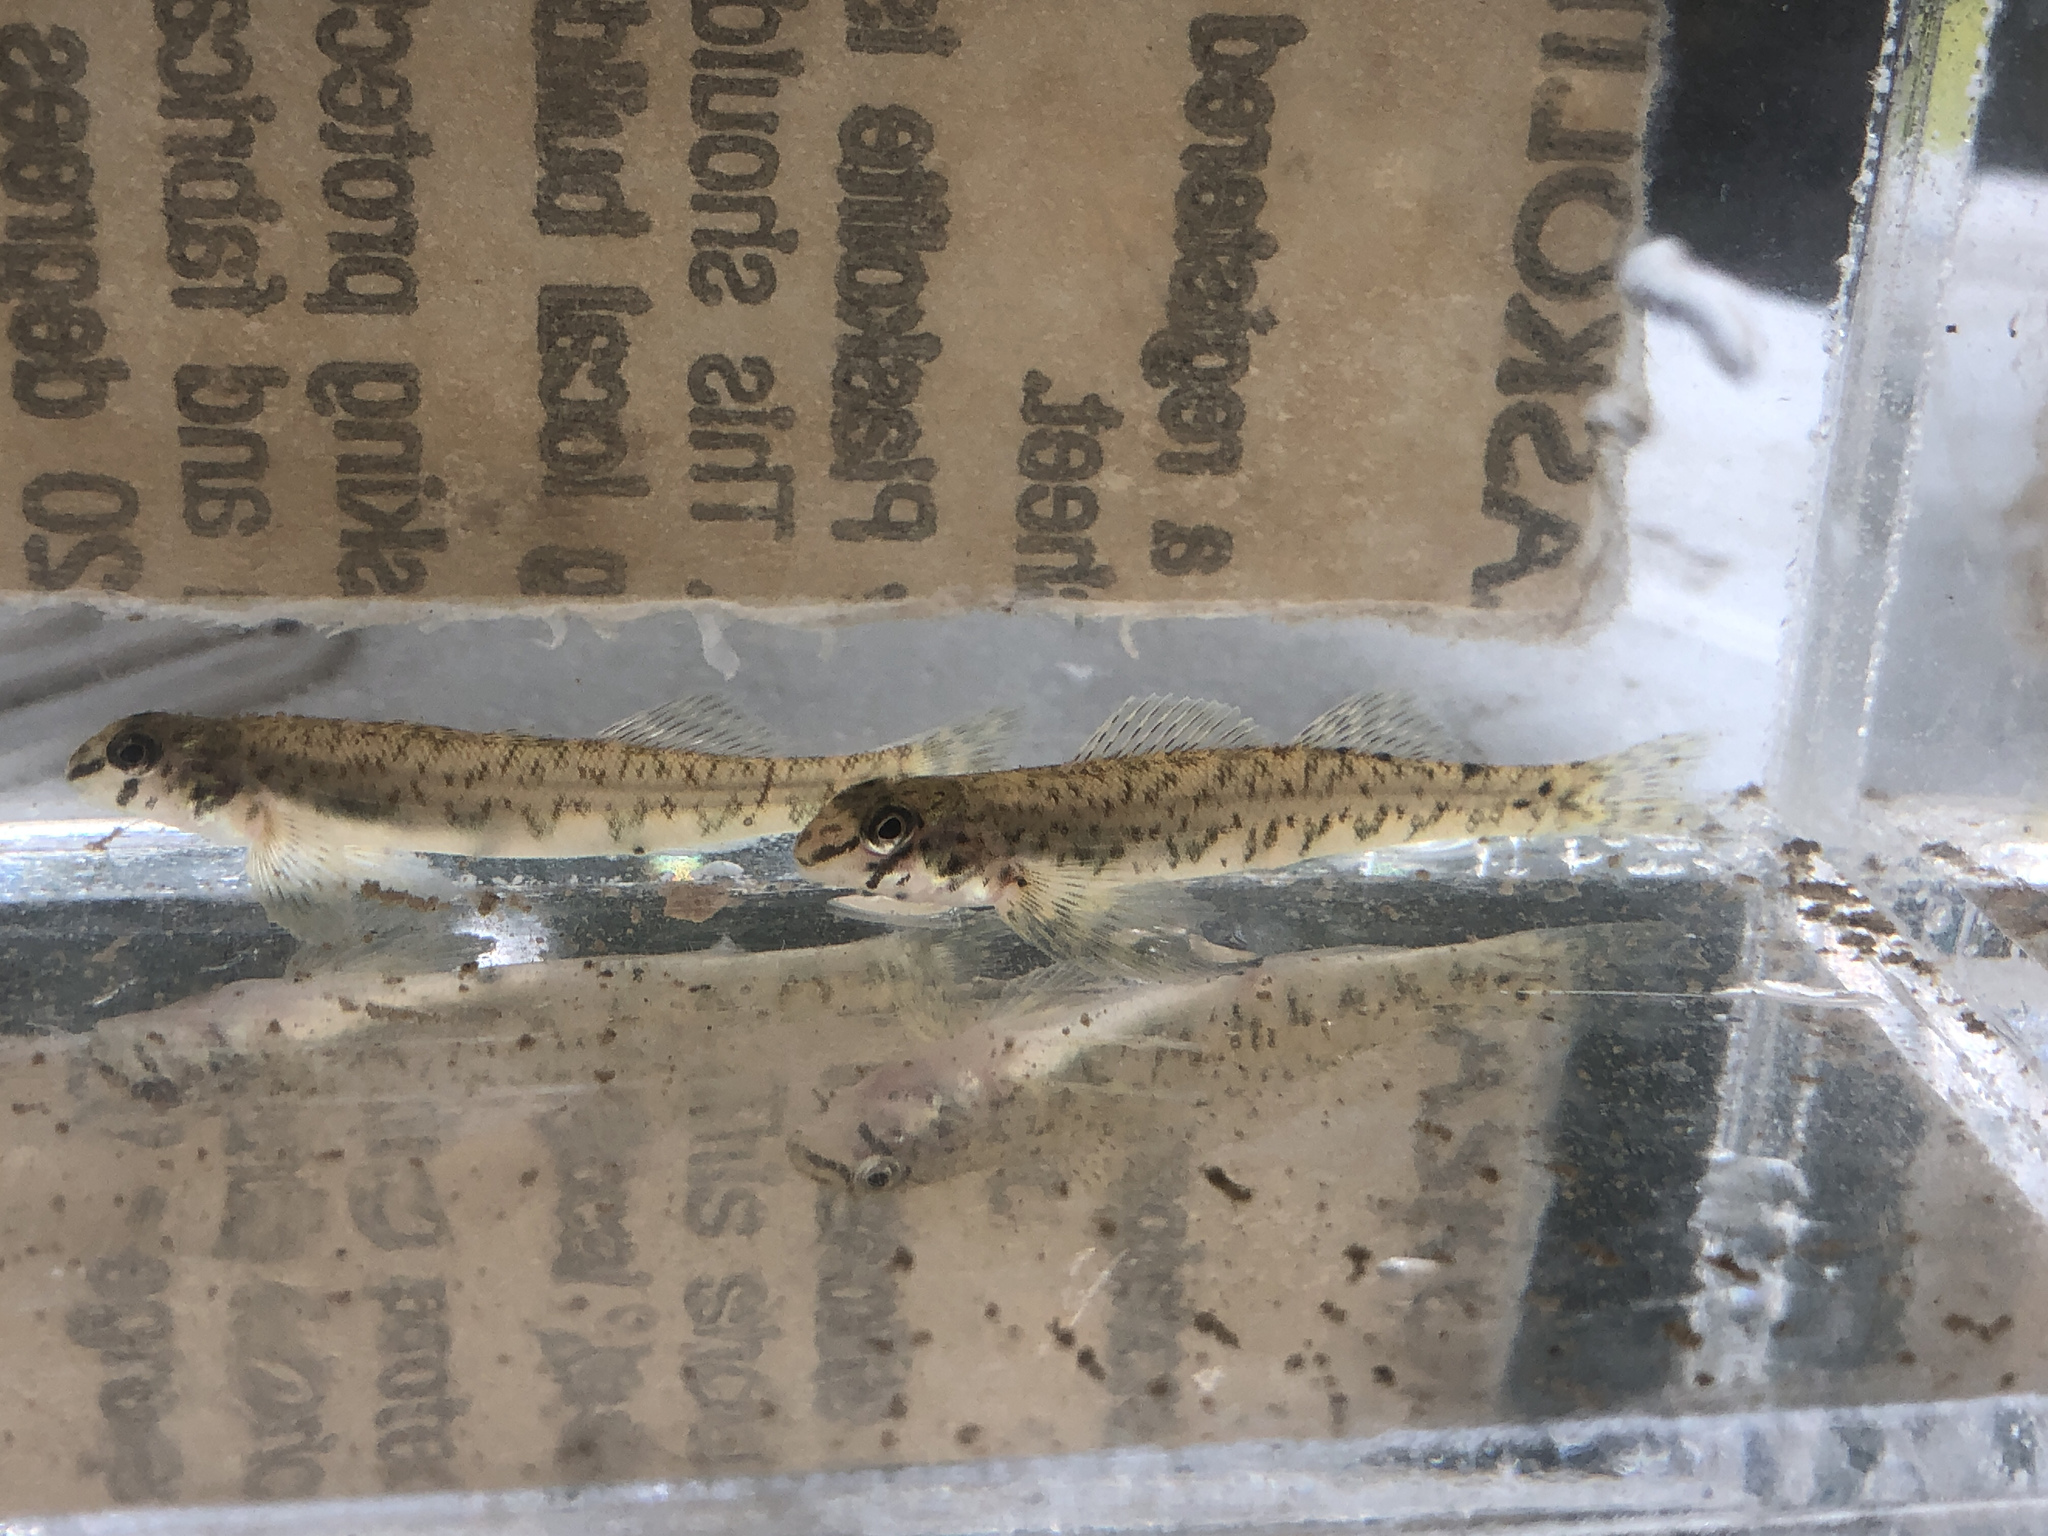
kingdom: Animalia
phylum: Chordata
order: Perciformes
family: Percidae
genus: Etheostoma
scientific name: Etheostoma blennioides
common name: Greenside darter
